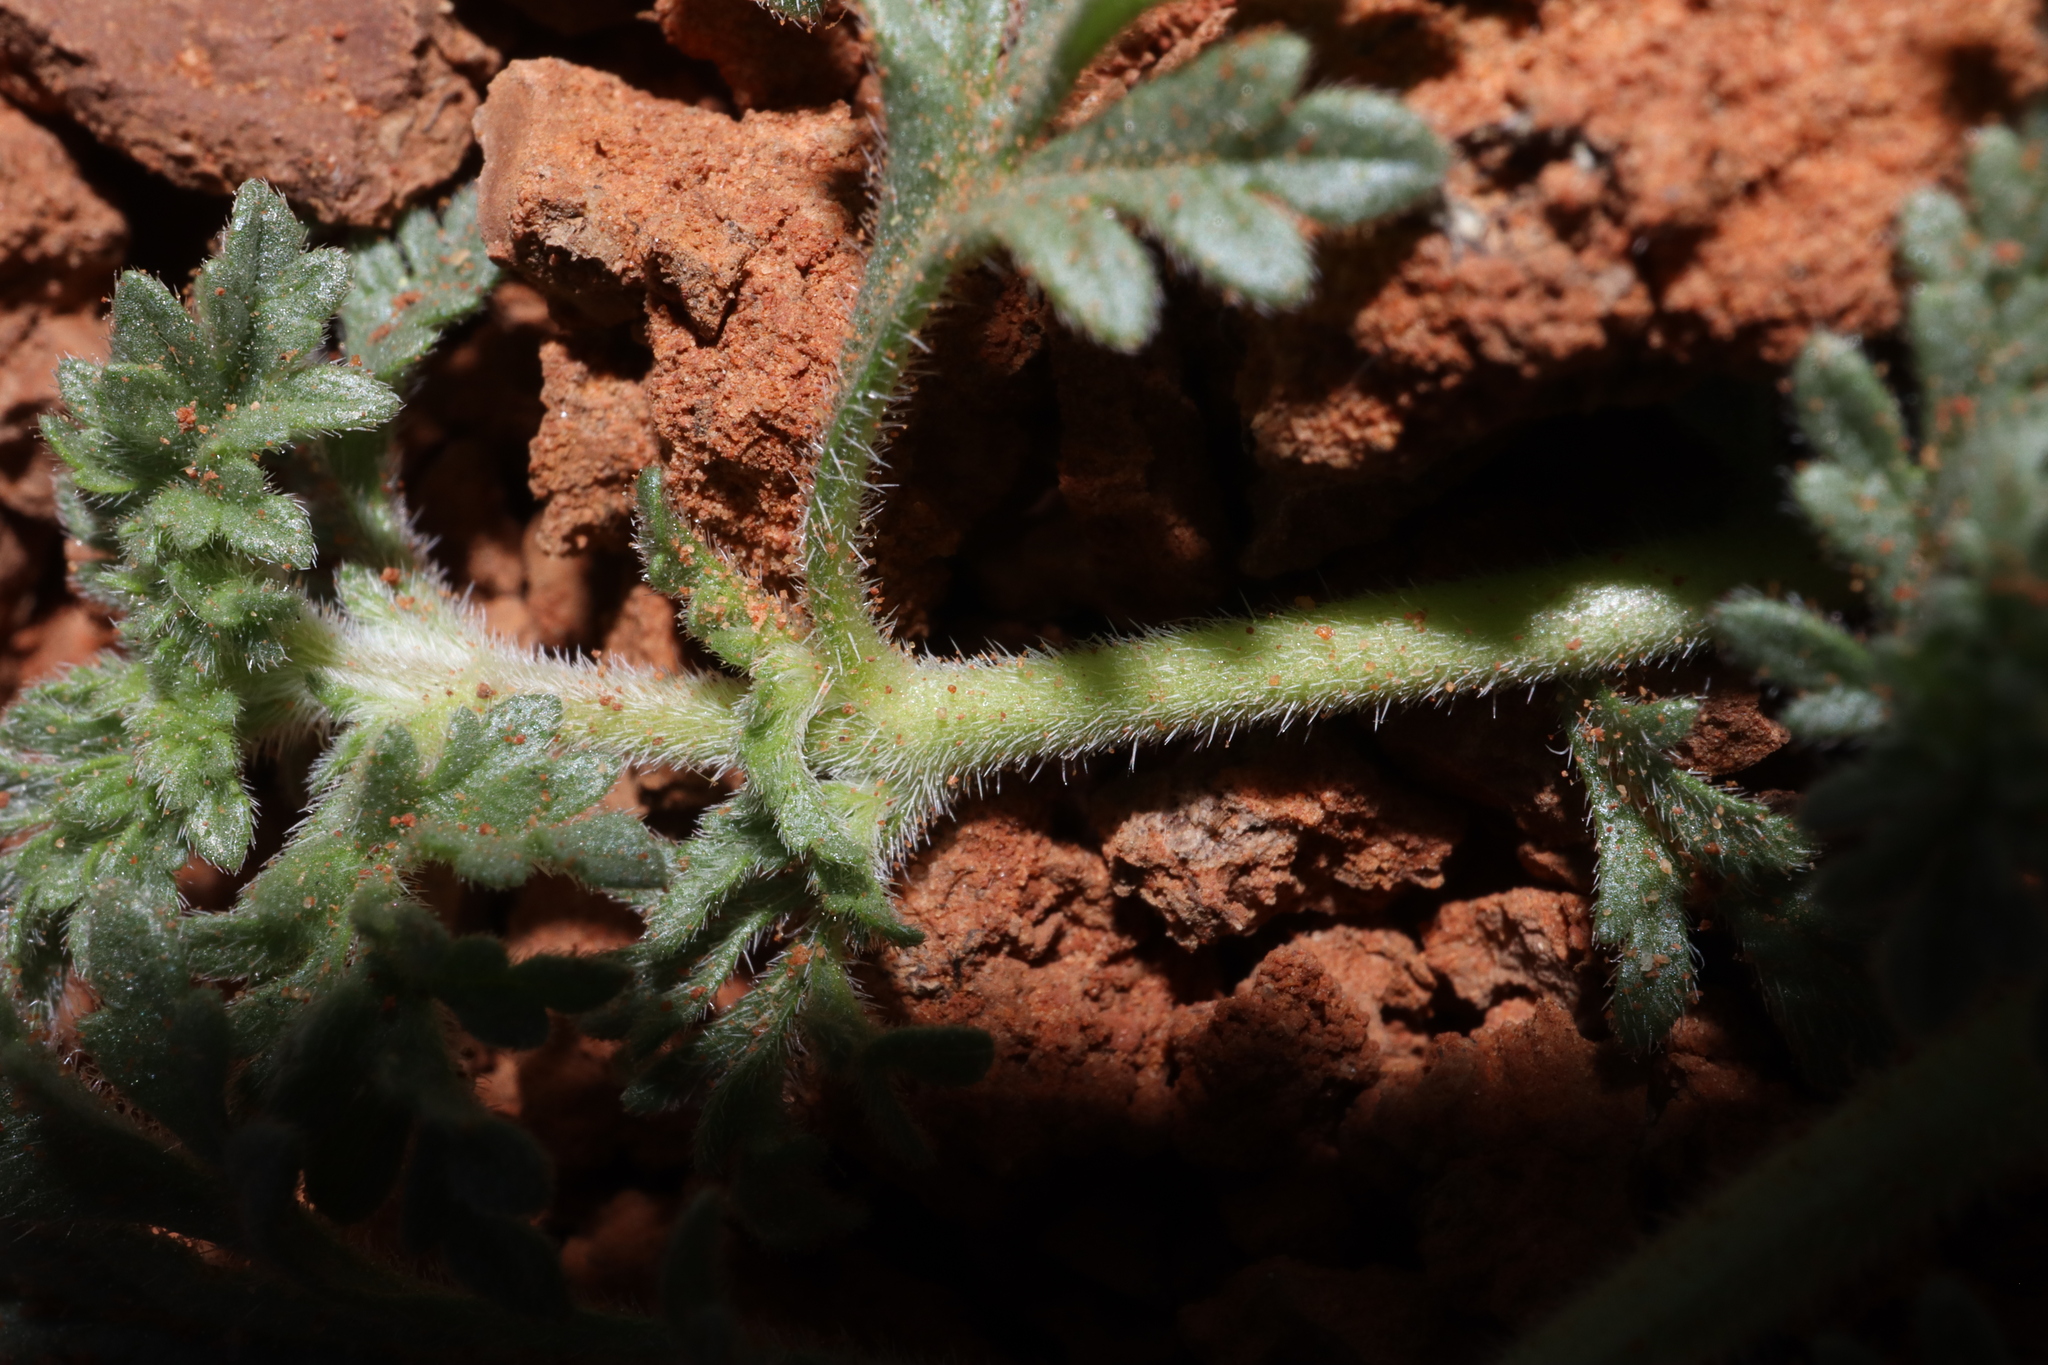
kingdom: Plantae
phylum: Tracheophyta
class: Magnoliopsida
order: Lamiales
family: Verbenaceae
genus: Verbena
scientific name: Verbena supina
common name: Trailing vervain
